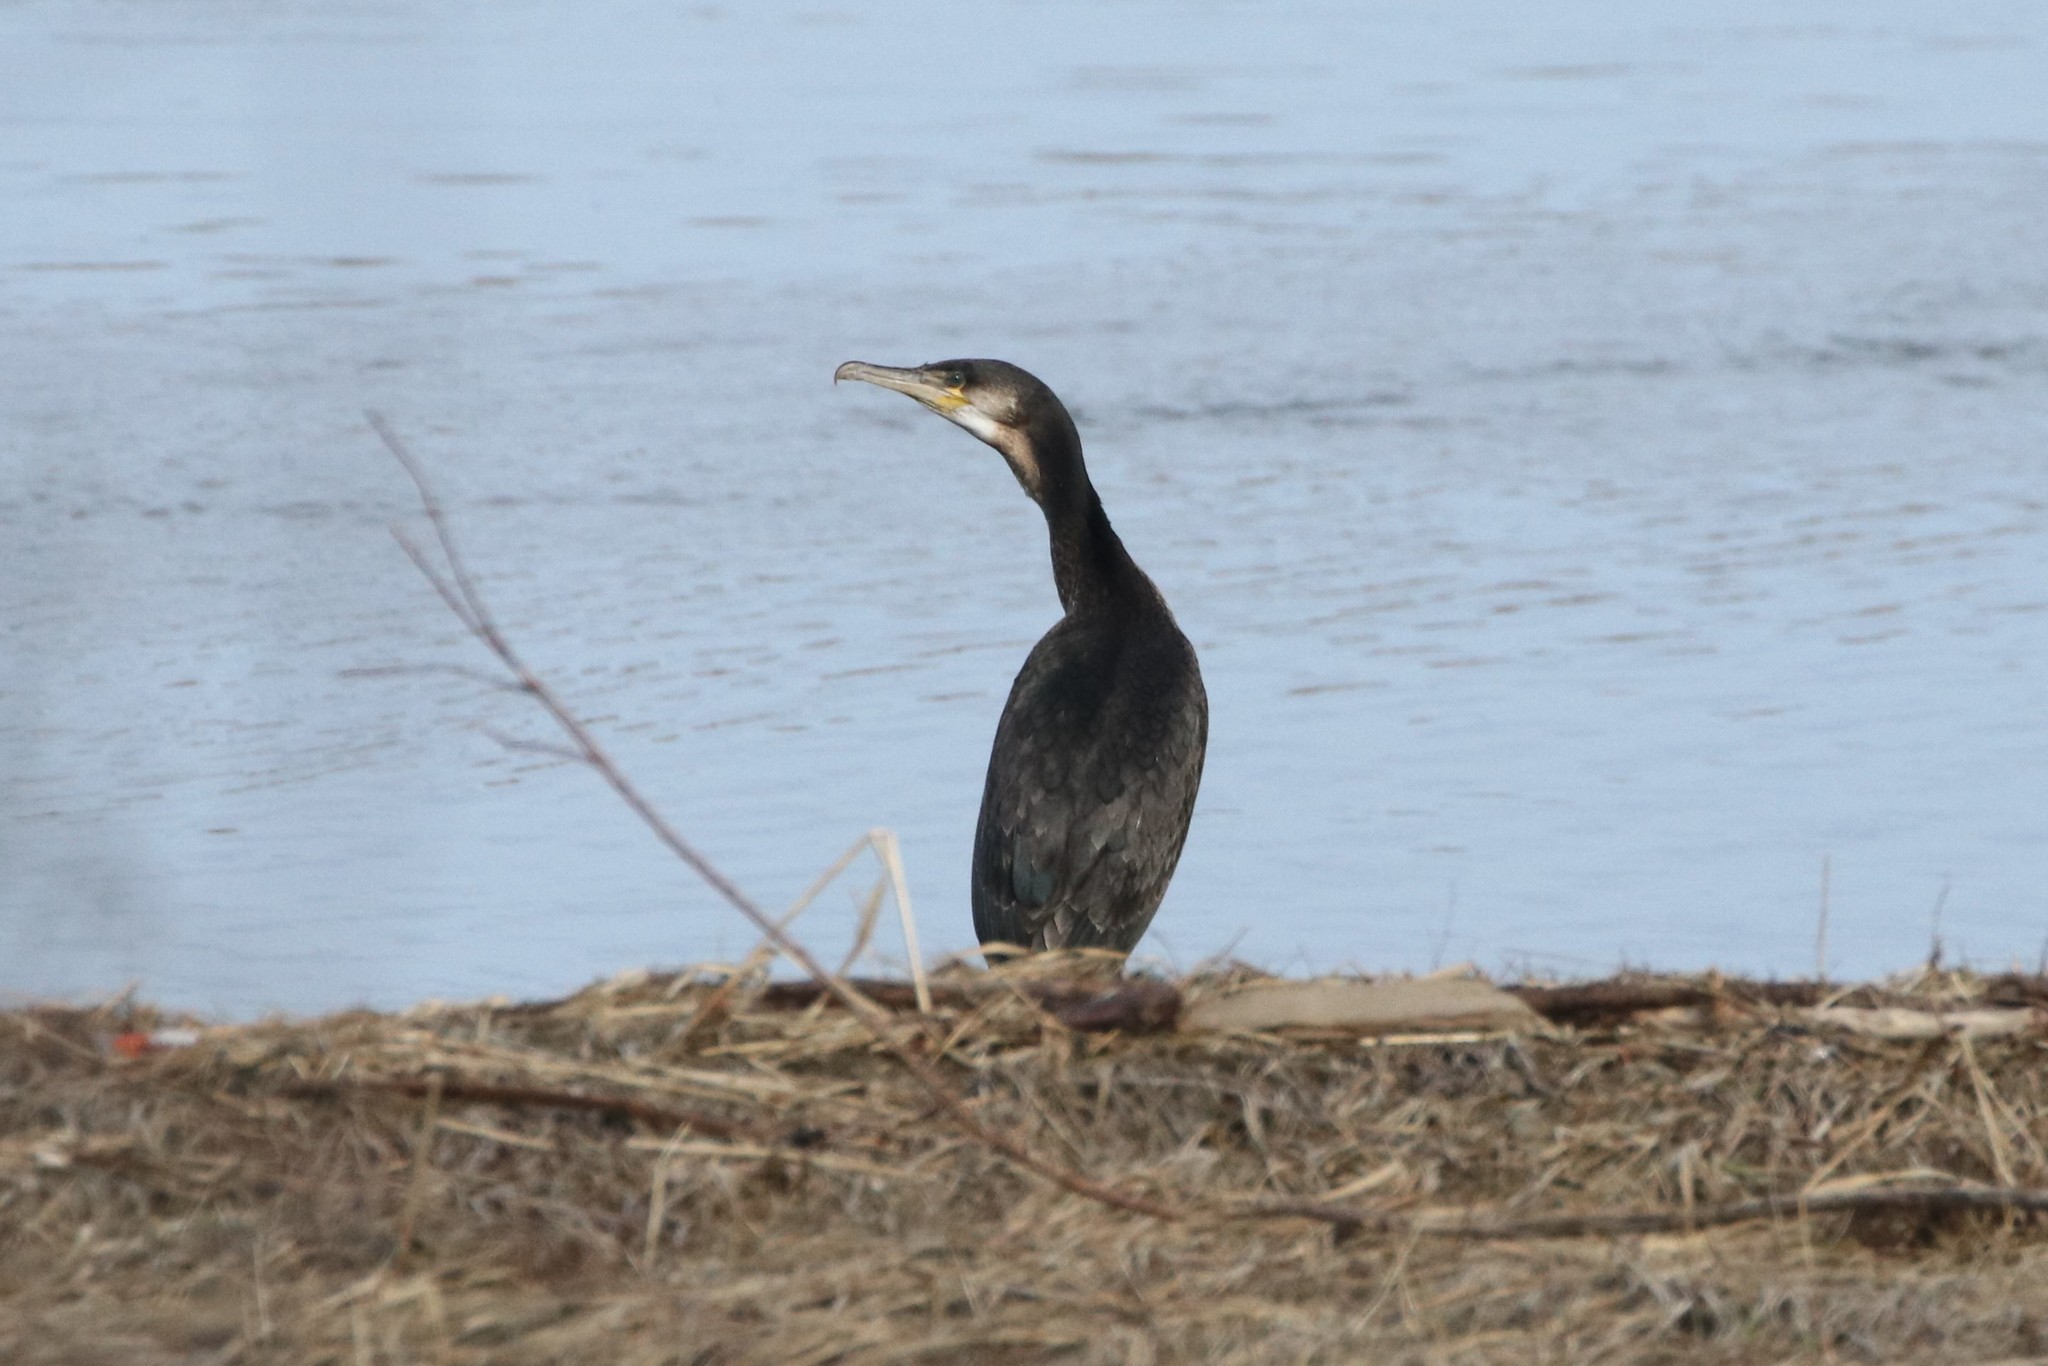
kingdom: Animalia
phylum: Chordata
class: Aves
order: Suliformes
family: Phalacrocoracidae
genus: Phalacrocorax
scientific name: Phalacrocorax carbo
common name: Great cormorant
